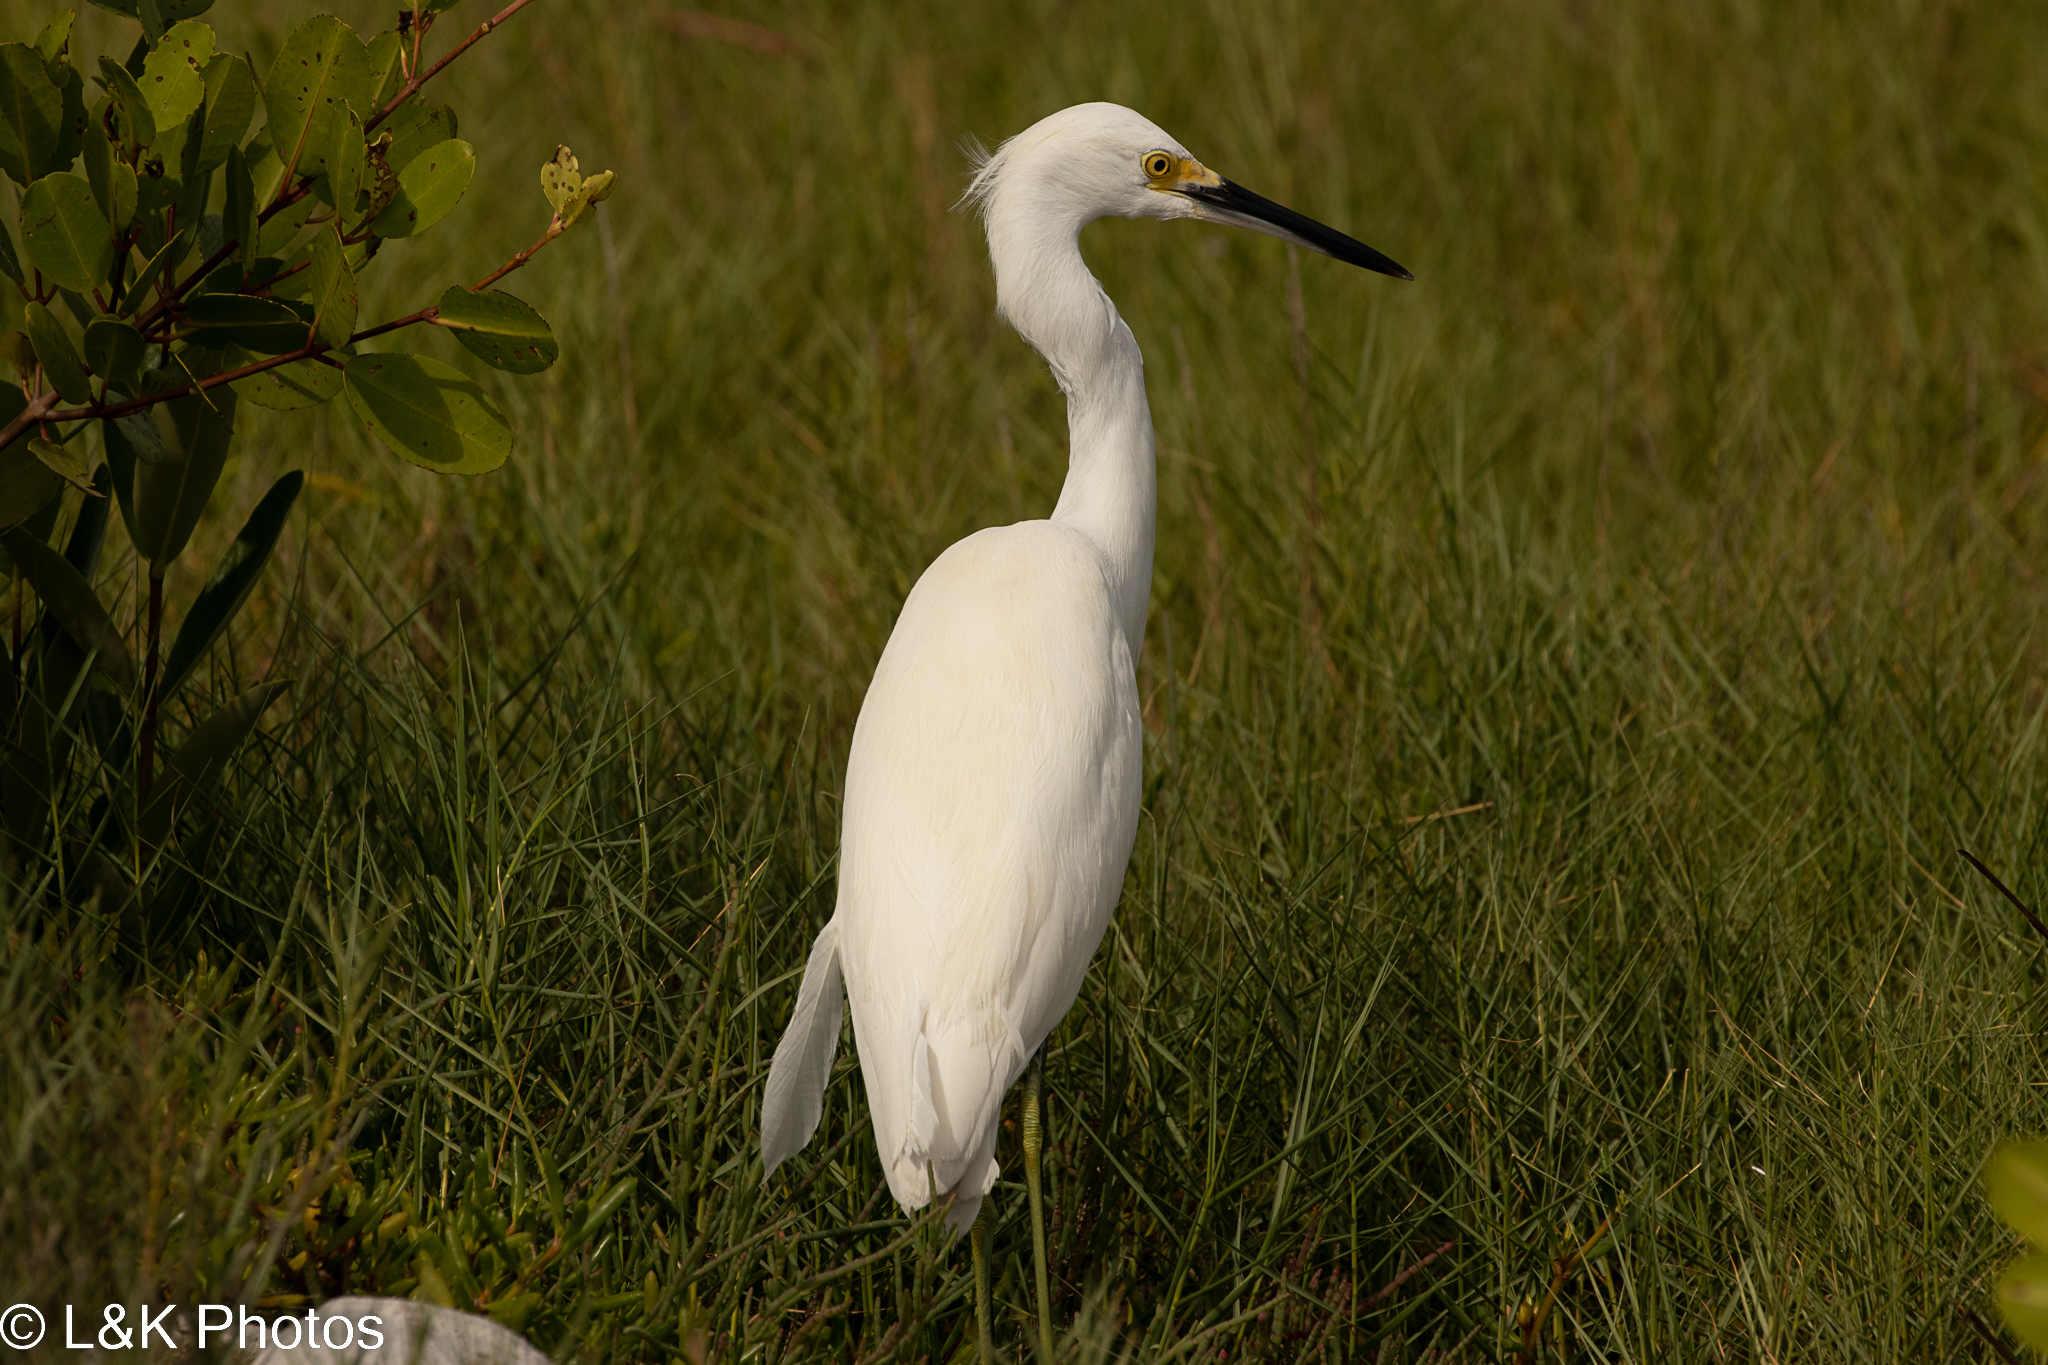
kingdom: Animalia
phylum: Chordata
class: Aves
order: Pelecaniformes
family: Ardeidae
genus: Egretta
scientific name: Egretta thula
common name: Snowy egret
